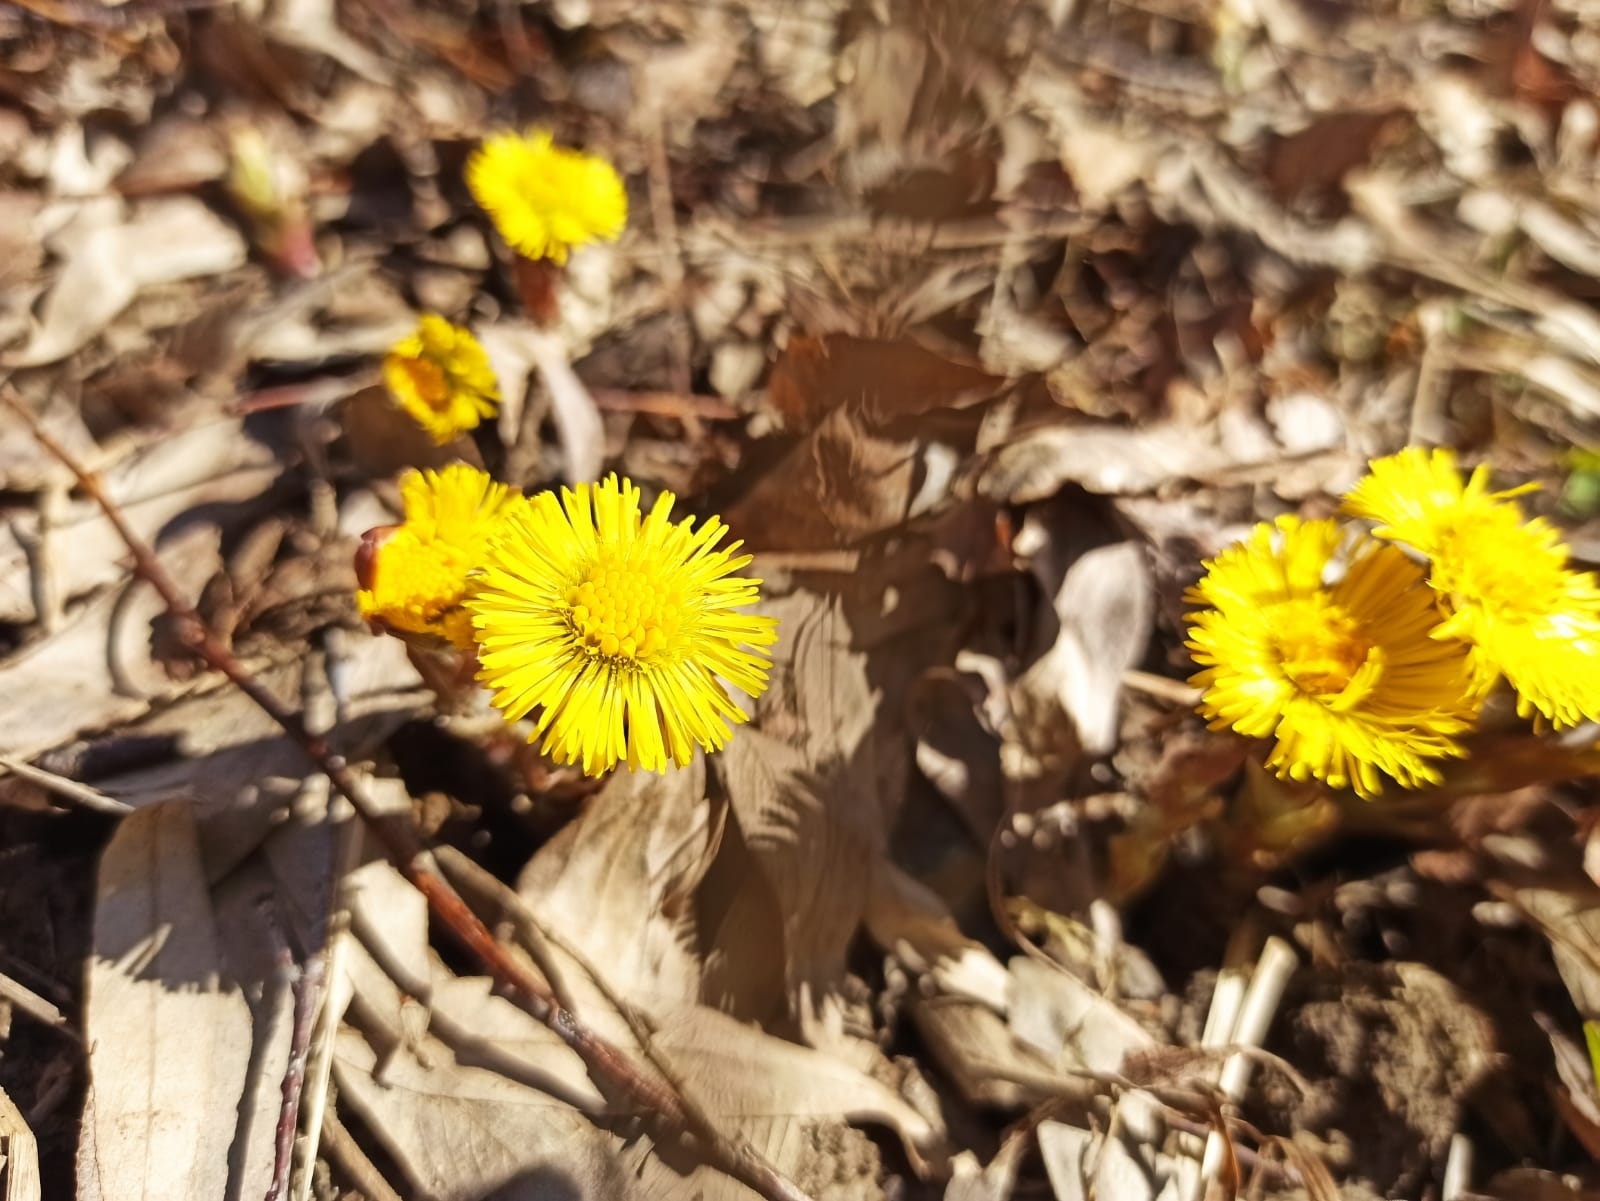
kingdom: Plantae
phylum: Tracheophyta
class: Magnoliopsida
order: Asterales
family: Asteraceae
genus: Tussilago
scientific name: Tussilago farfara
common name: Coltsfoot
